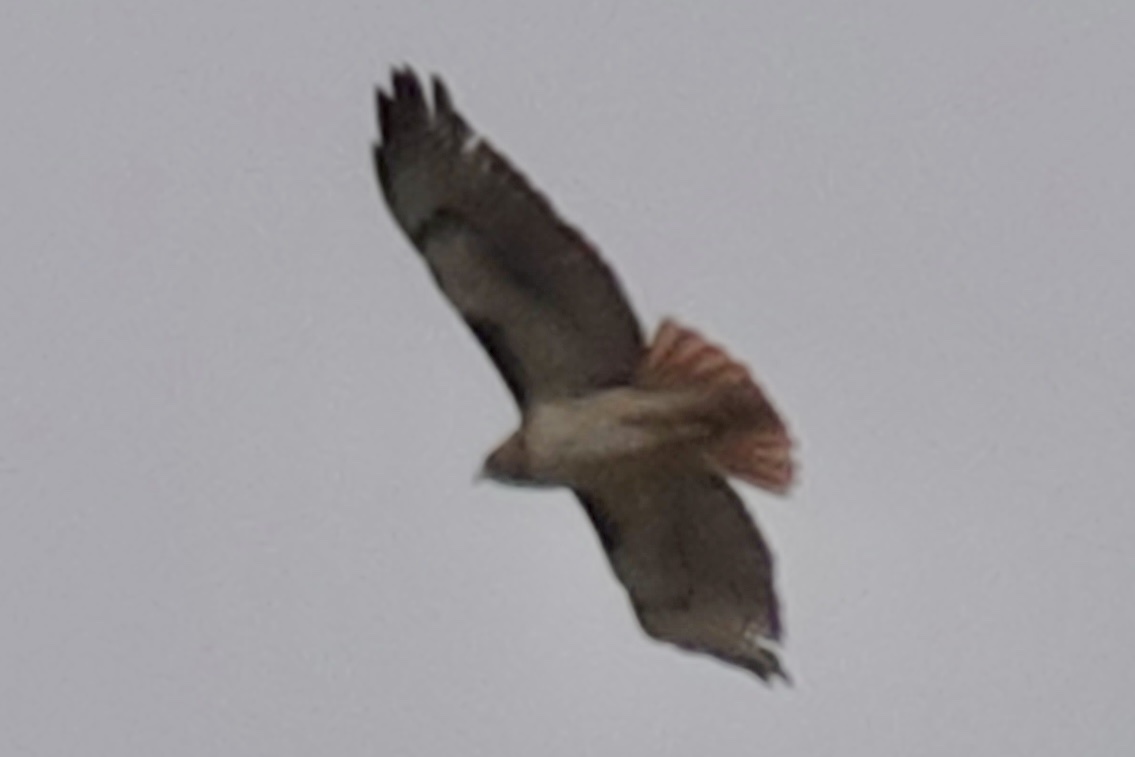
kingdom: Animalia
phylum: Chordata
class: Aves
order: Accipitriformes
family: Accipitridae
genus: Buteo
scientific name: Buteo jamaicensis
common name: Red-tailed hawk
